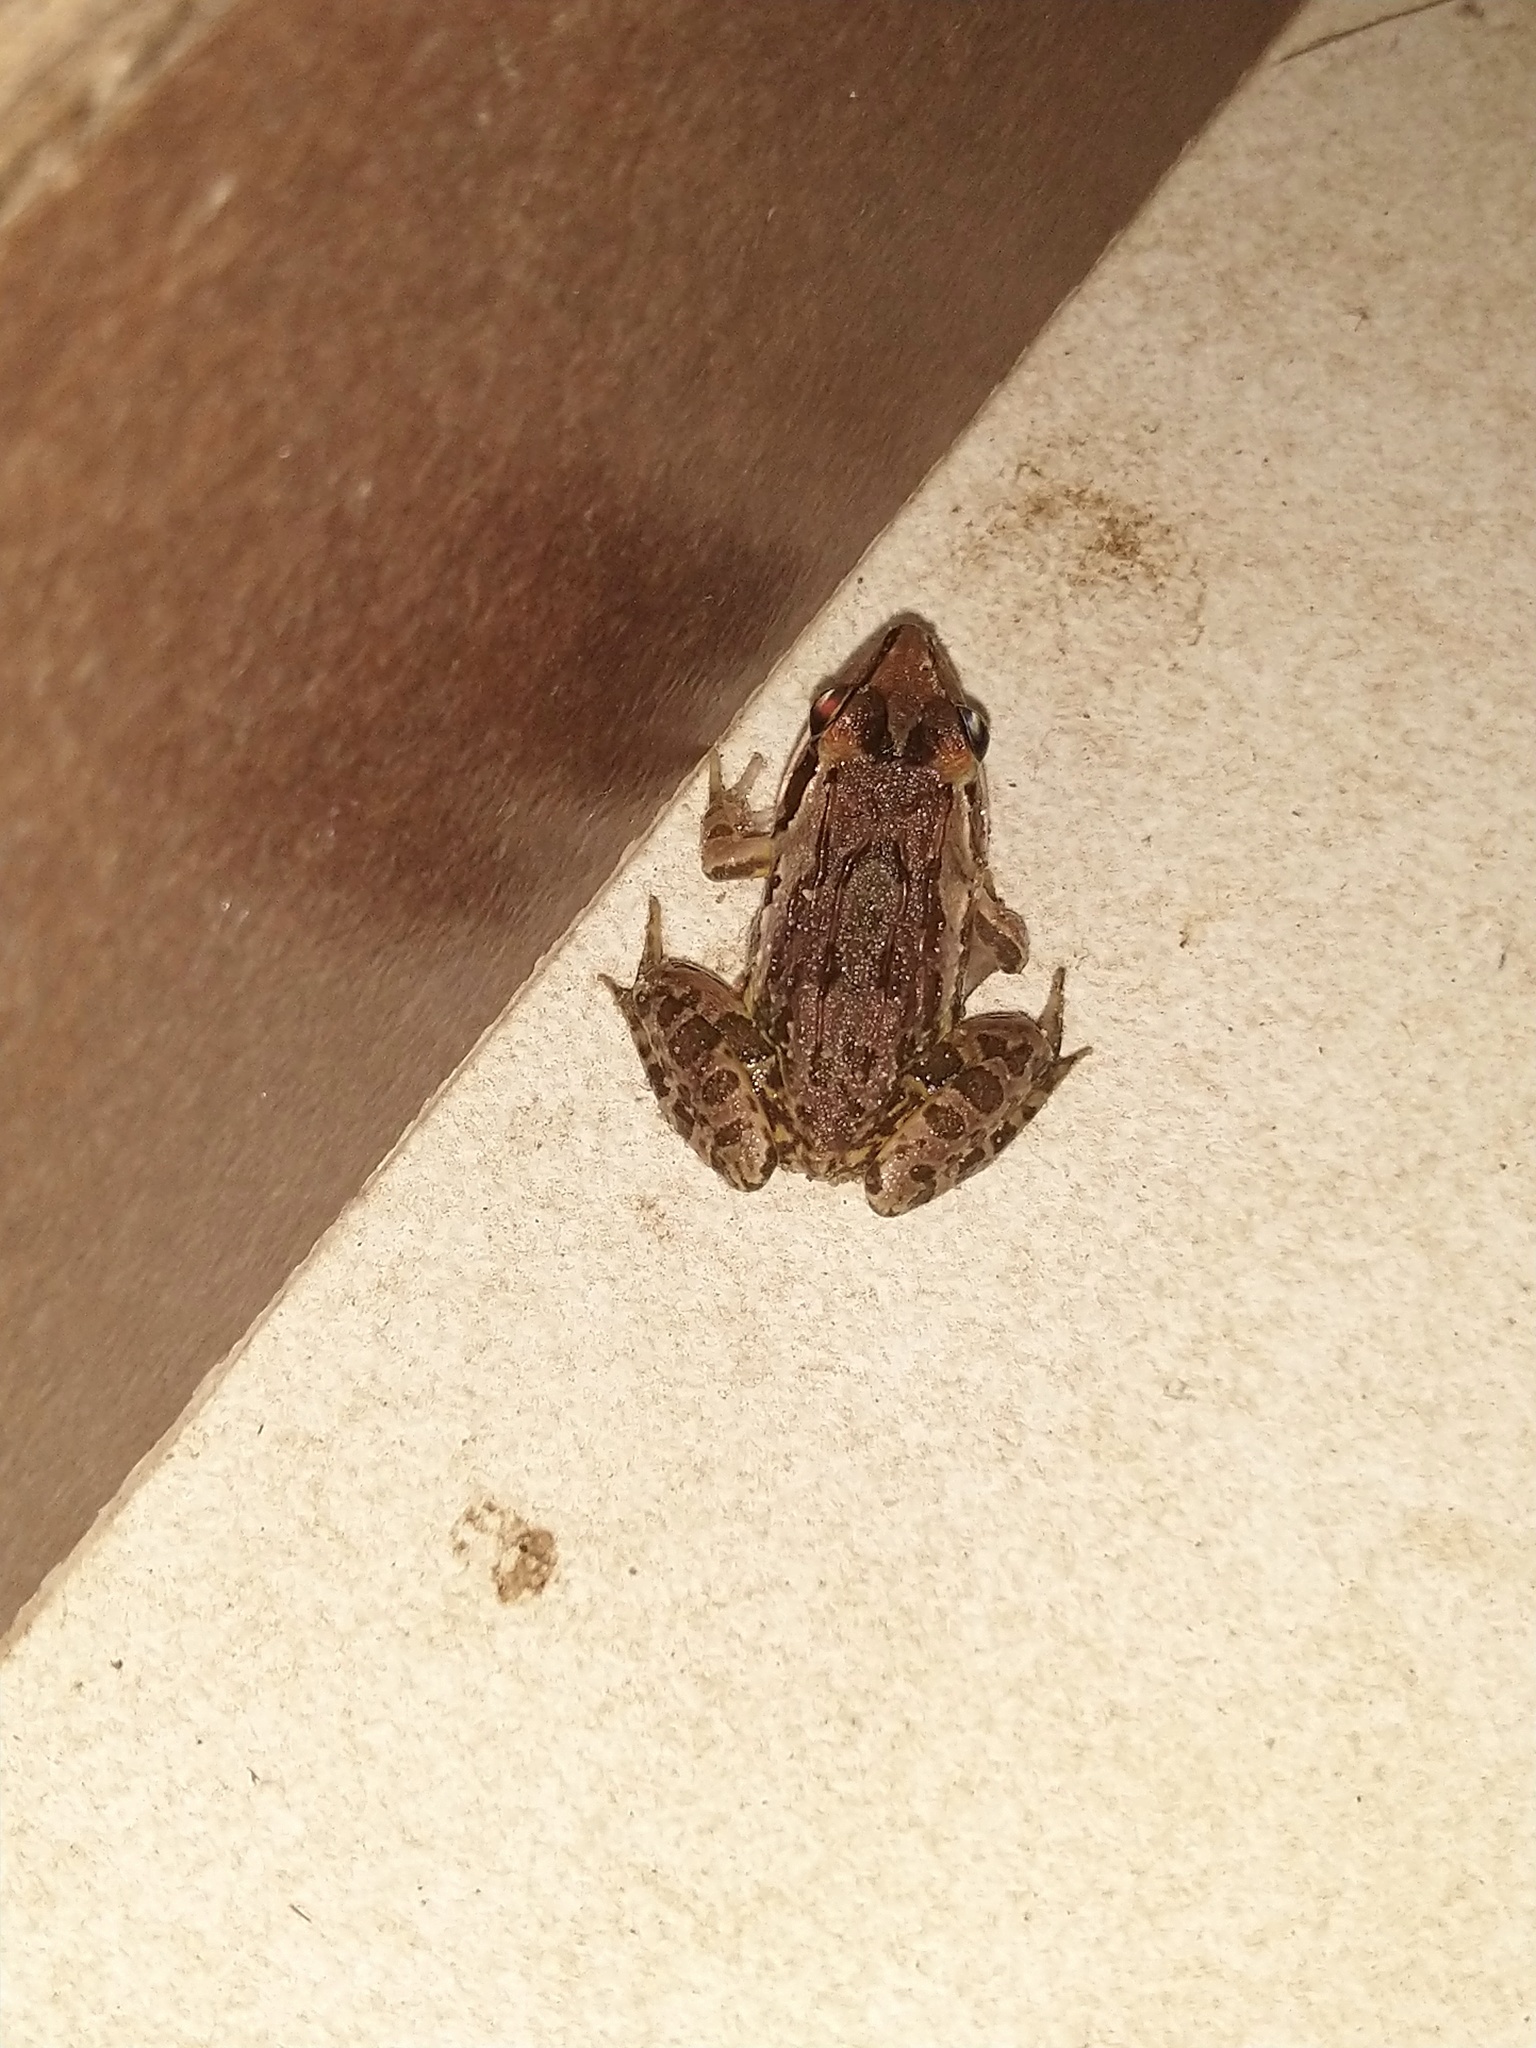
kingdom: Animalia
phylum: Chordata
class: Amphibia
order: Anura
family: Dicroglossidae
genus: Hoplobatrachus
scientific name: Hoplobatrachus tigerinus
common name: Indian bullfrog
